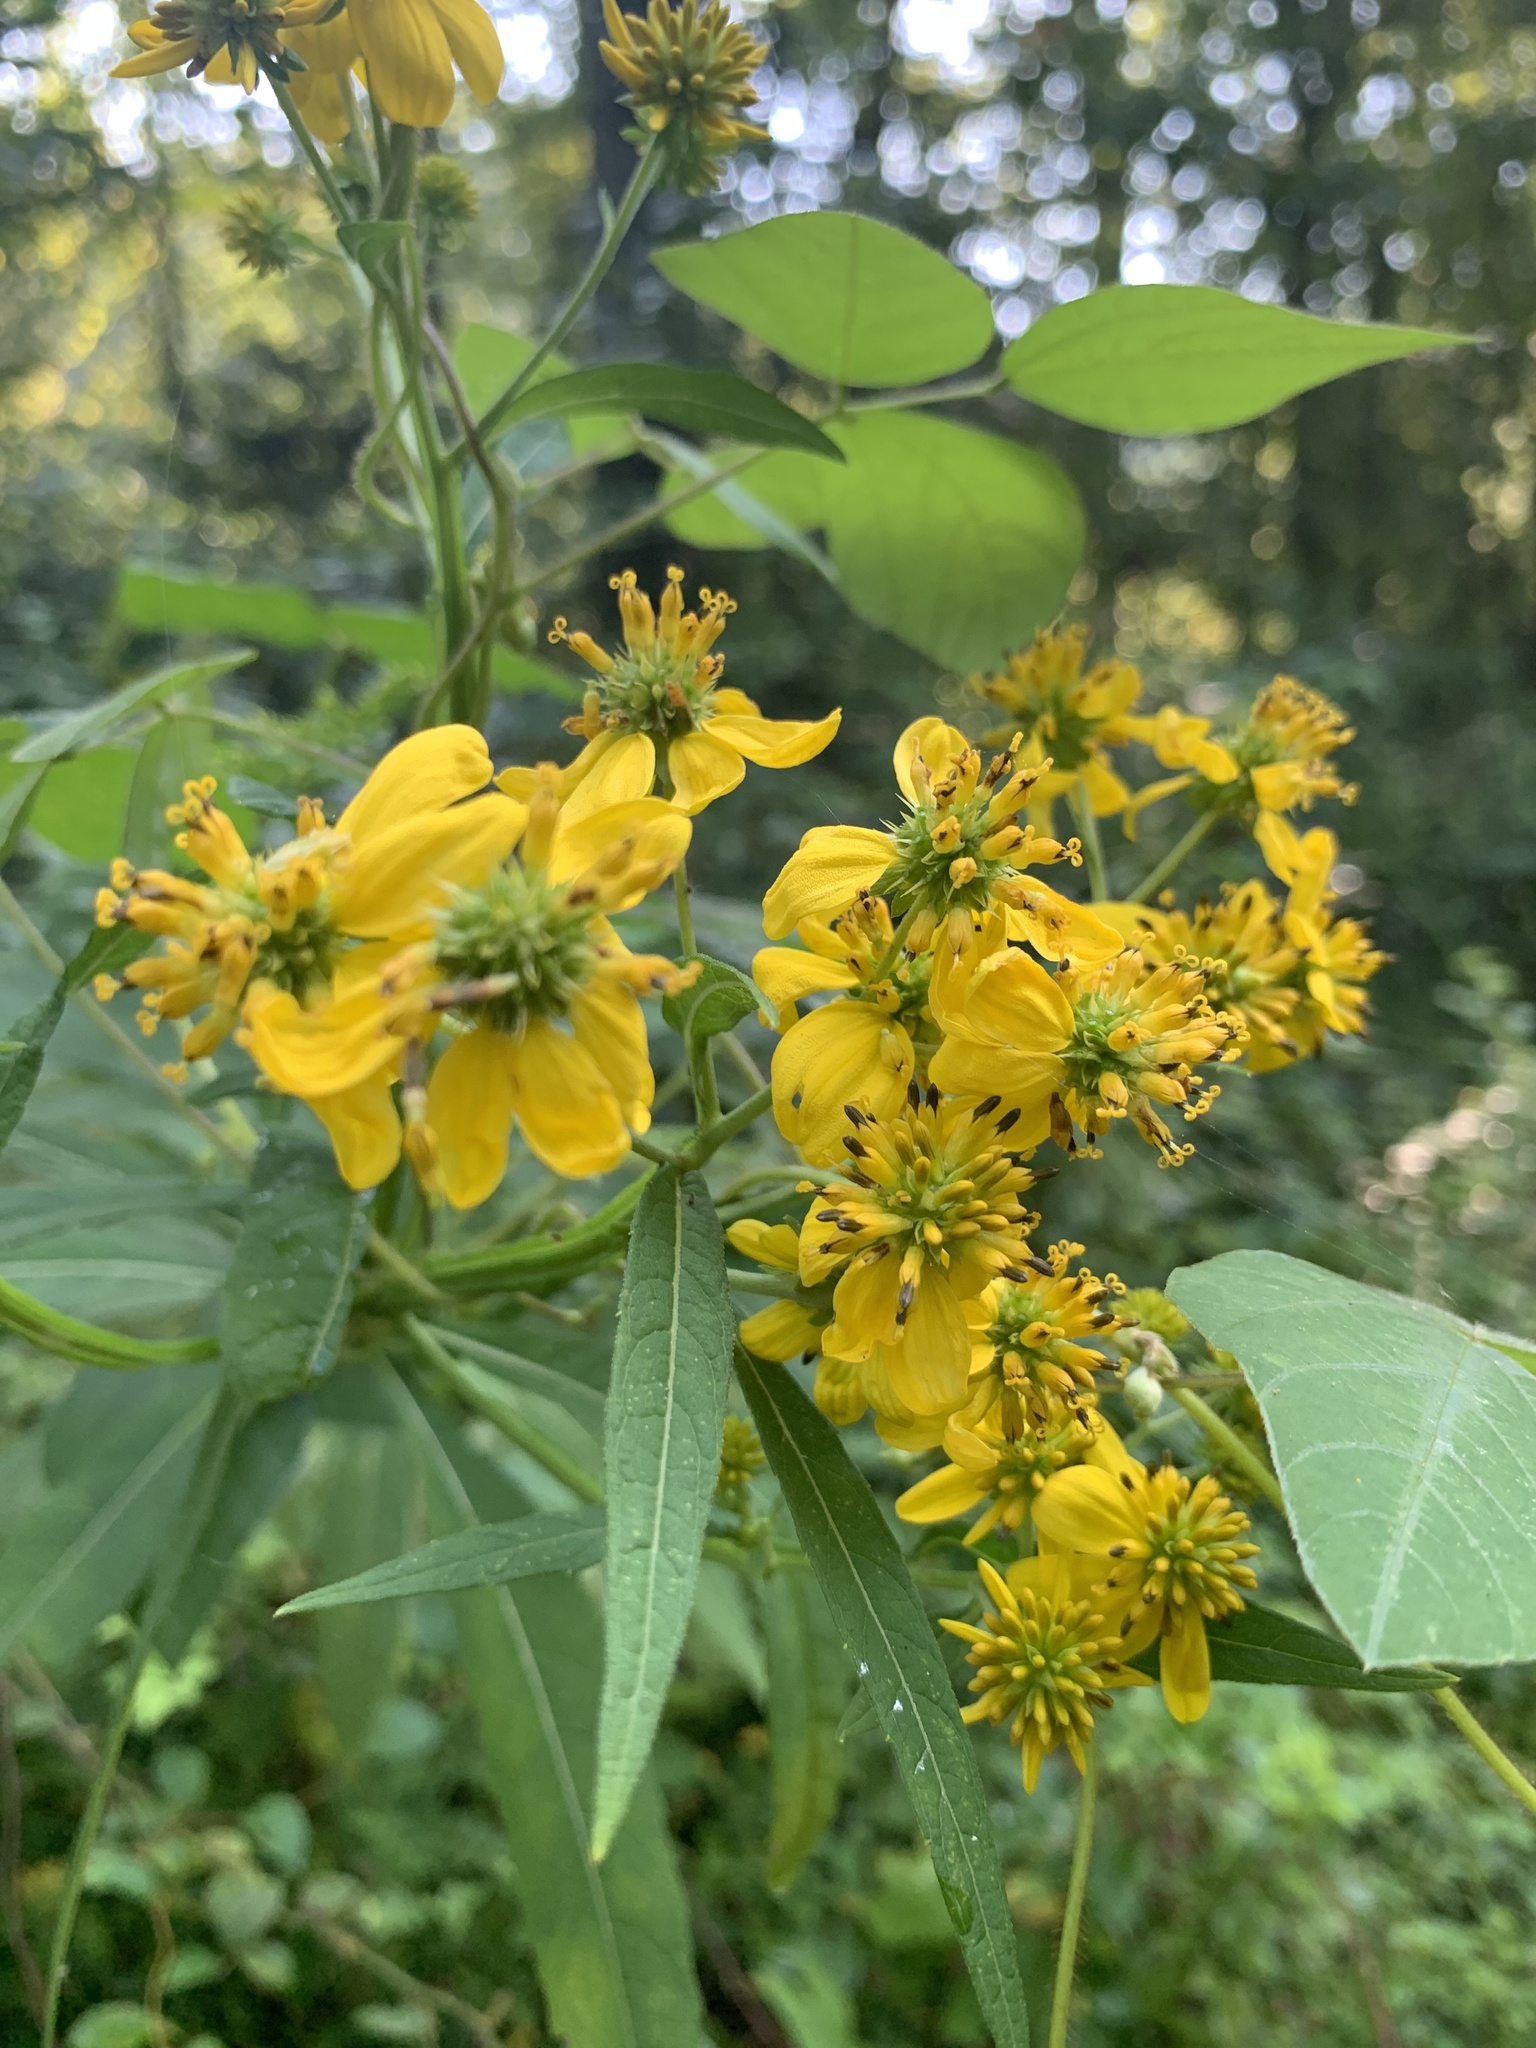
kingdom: Plantae
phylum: Tracheophyta
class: Magnoliopsida
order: Asterales
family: Asteraceae
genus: Verbesina
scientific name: Verbesina alternifolia
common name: Wingstem
